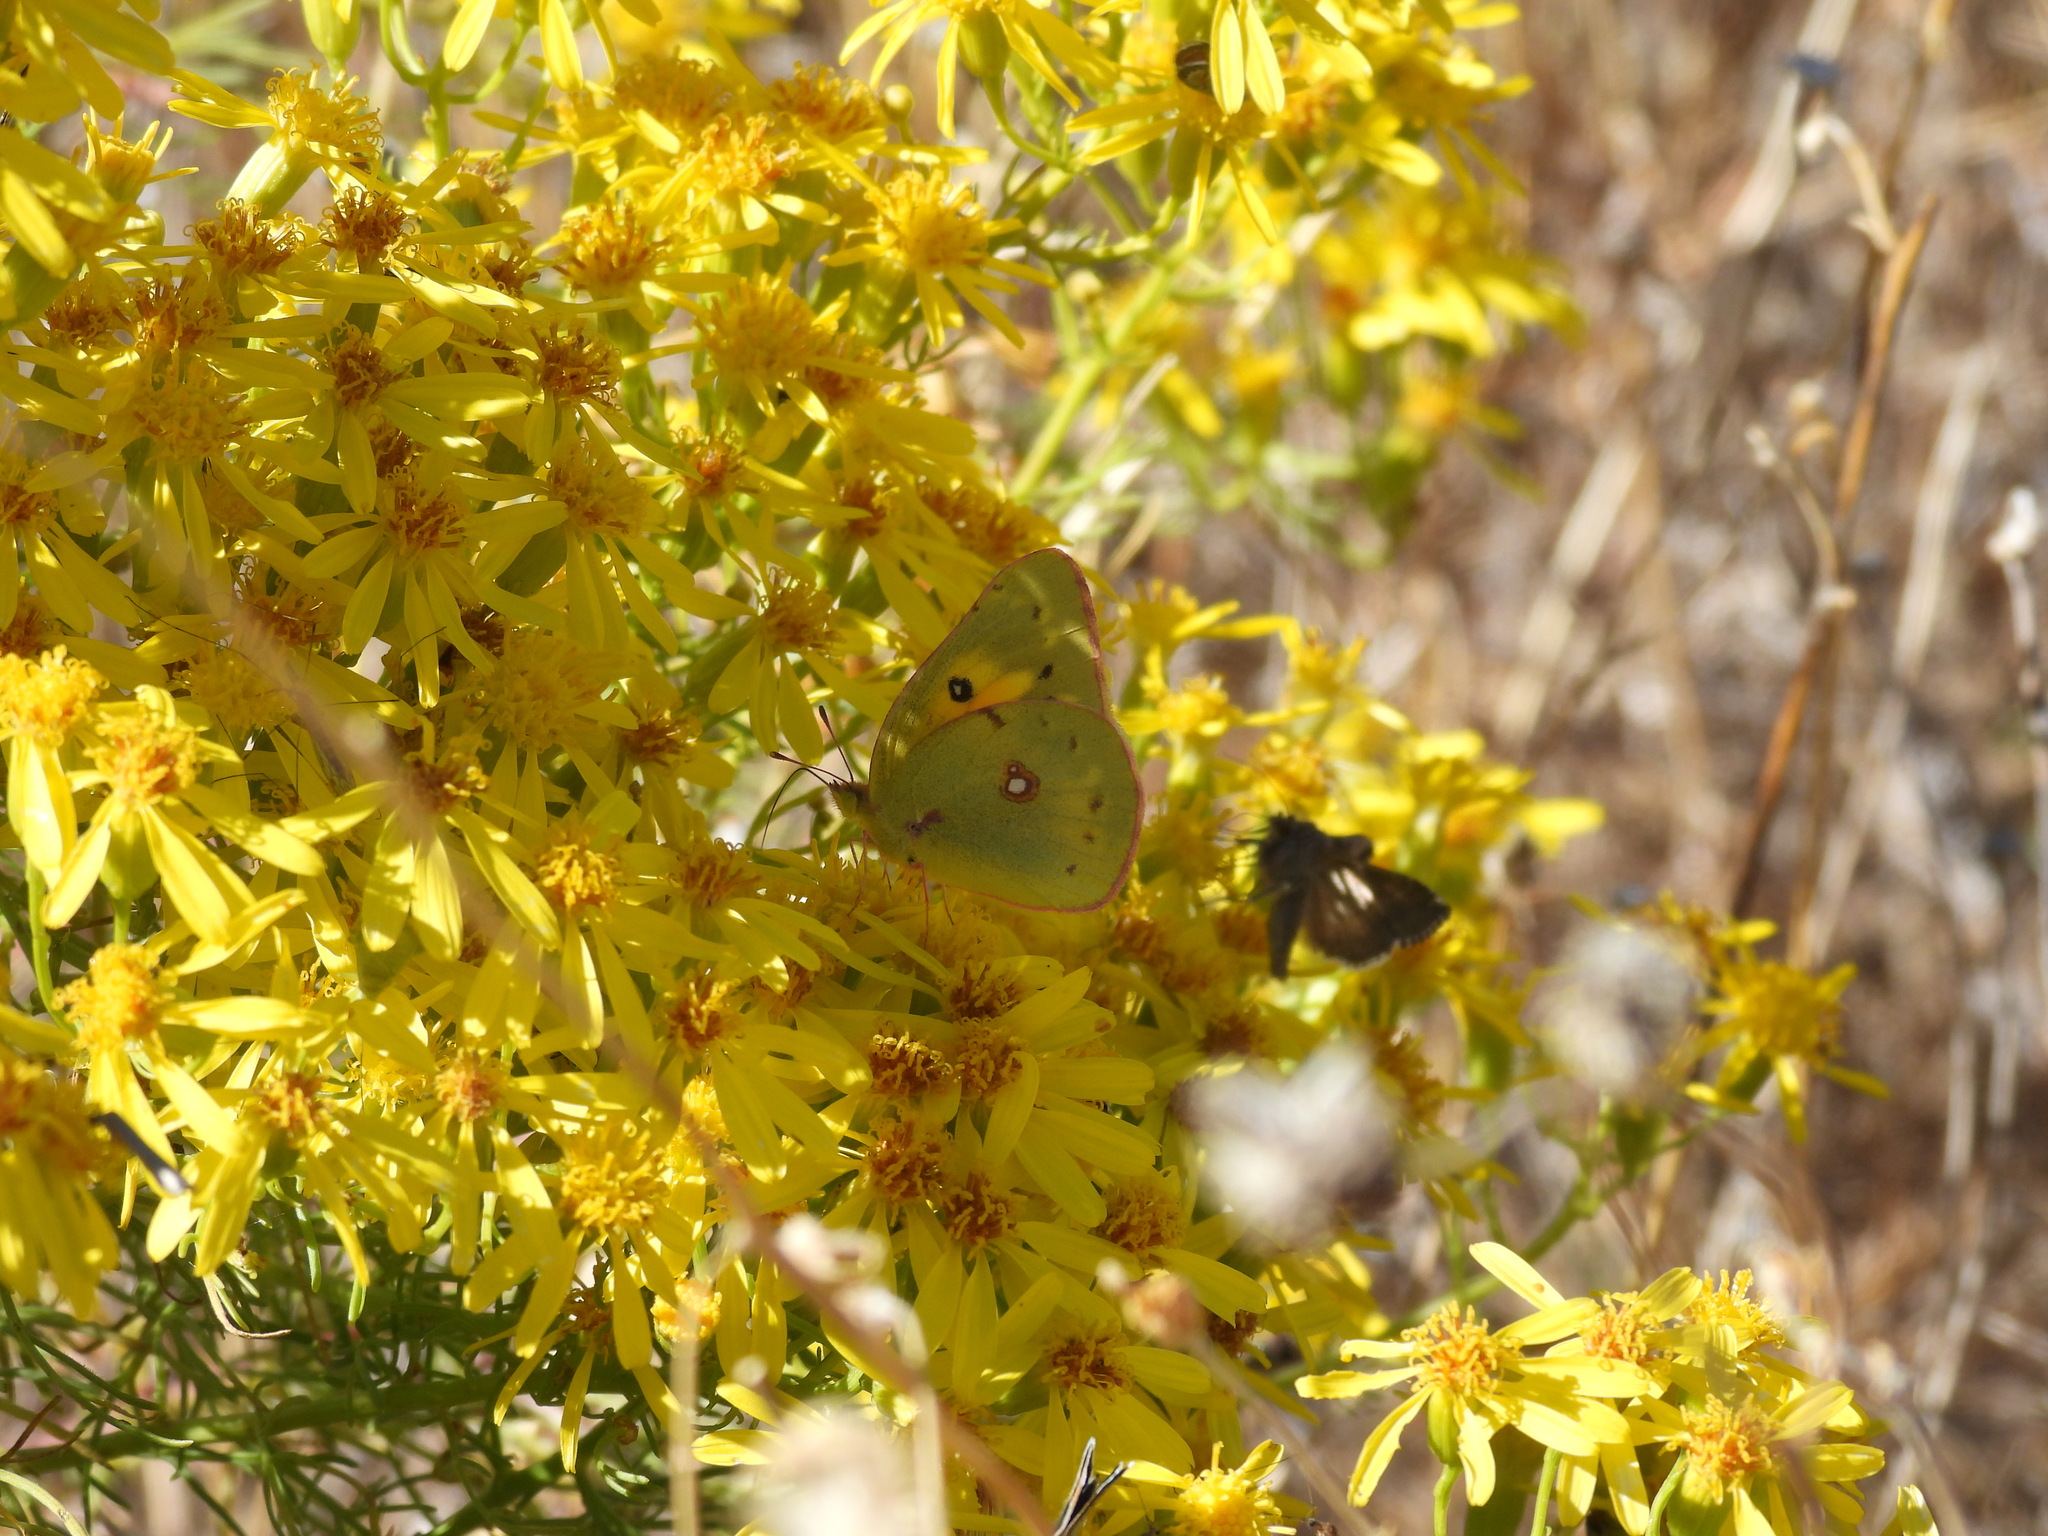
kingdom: Animalia
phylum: Arthropoda
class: Insecta
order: Lepidoptera
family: Pieridae
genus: Colias
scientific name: Colias eurytheme
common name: Alfalfa butterfly
